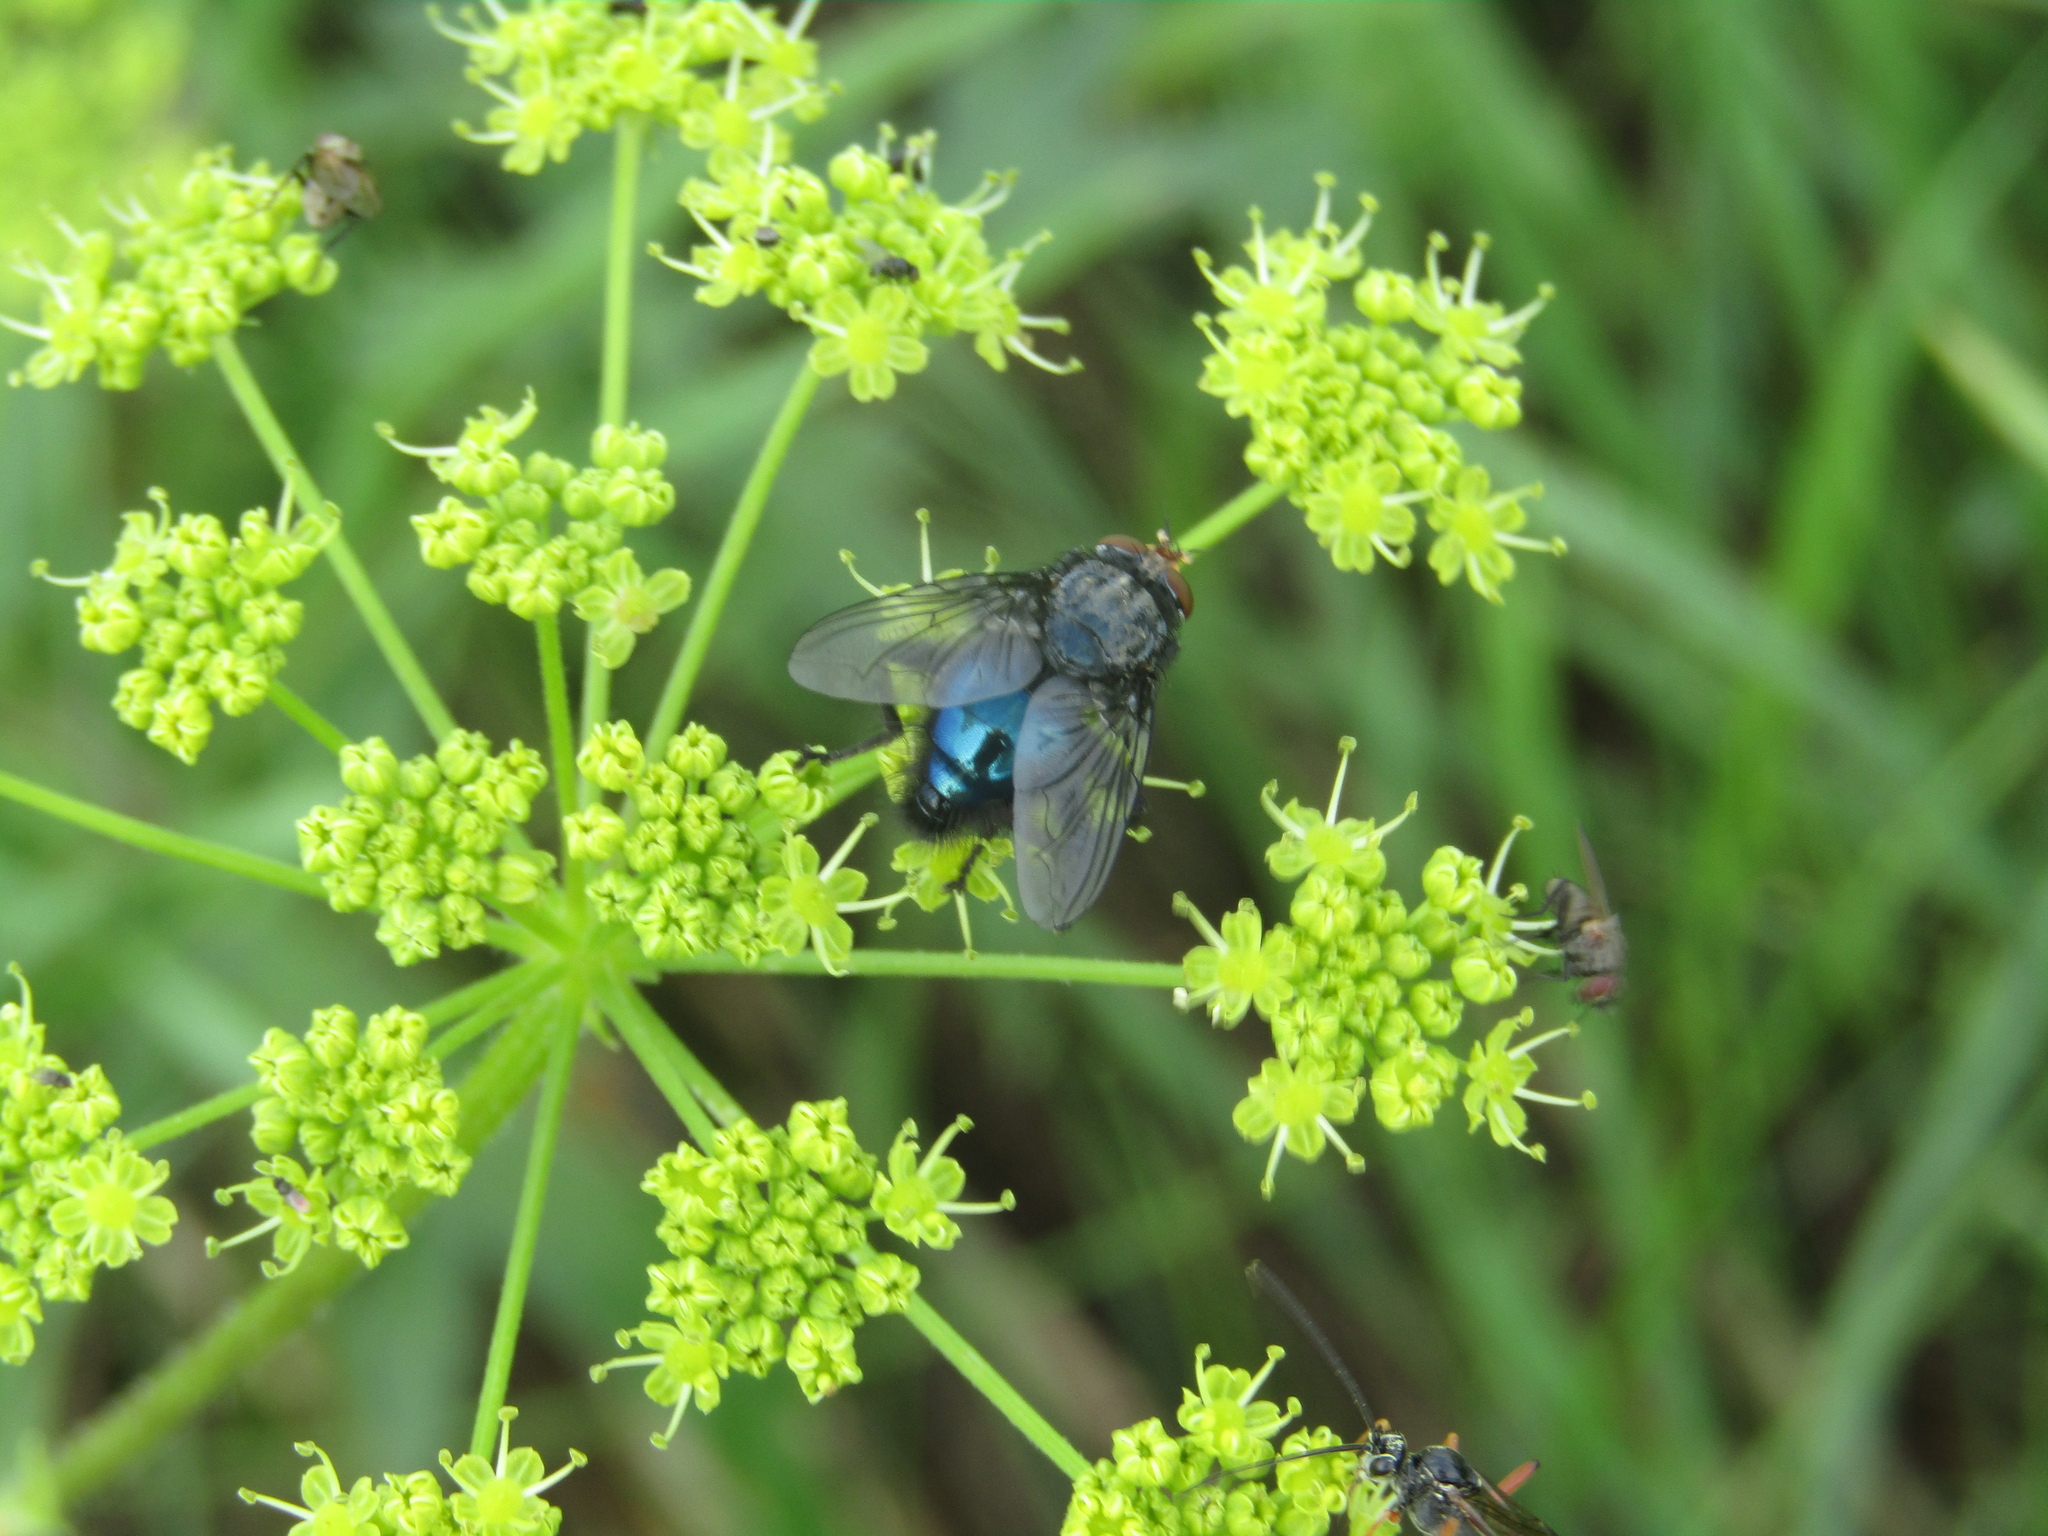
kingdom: Animalia
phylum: Arthropoda
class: Insecta
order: Diptera
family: Calliphoridae
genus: Cynomya
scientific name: Cynomya mortuorum
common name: Bluebottle blow fly
